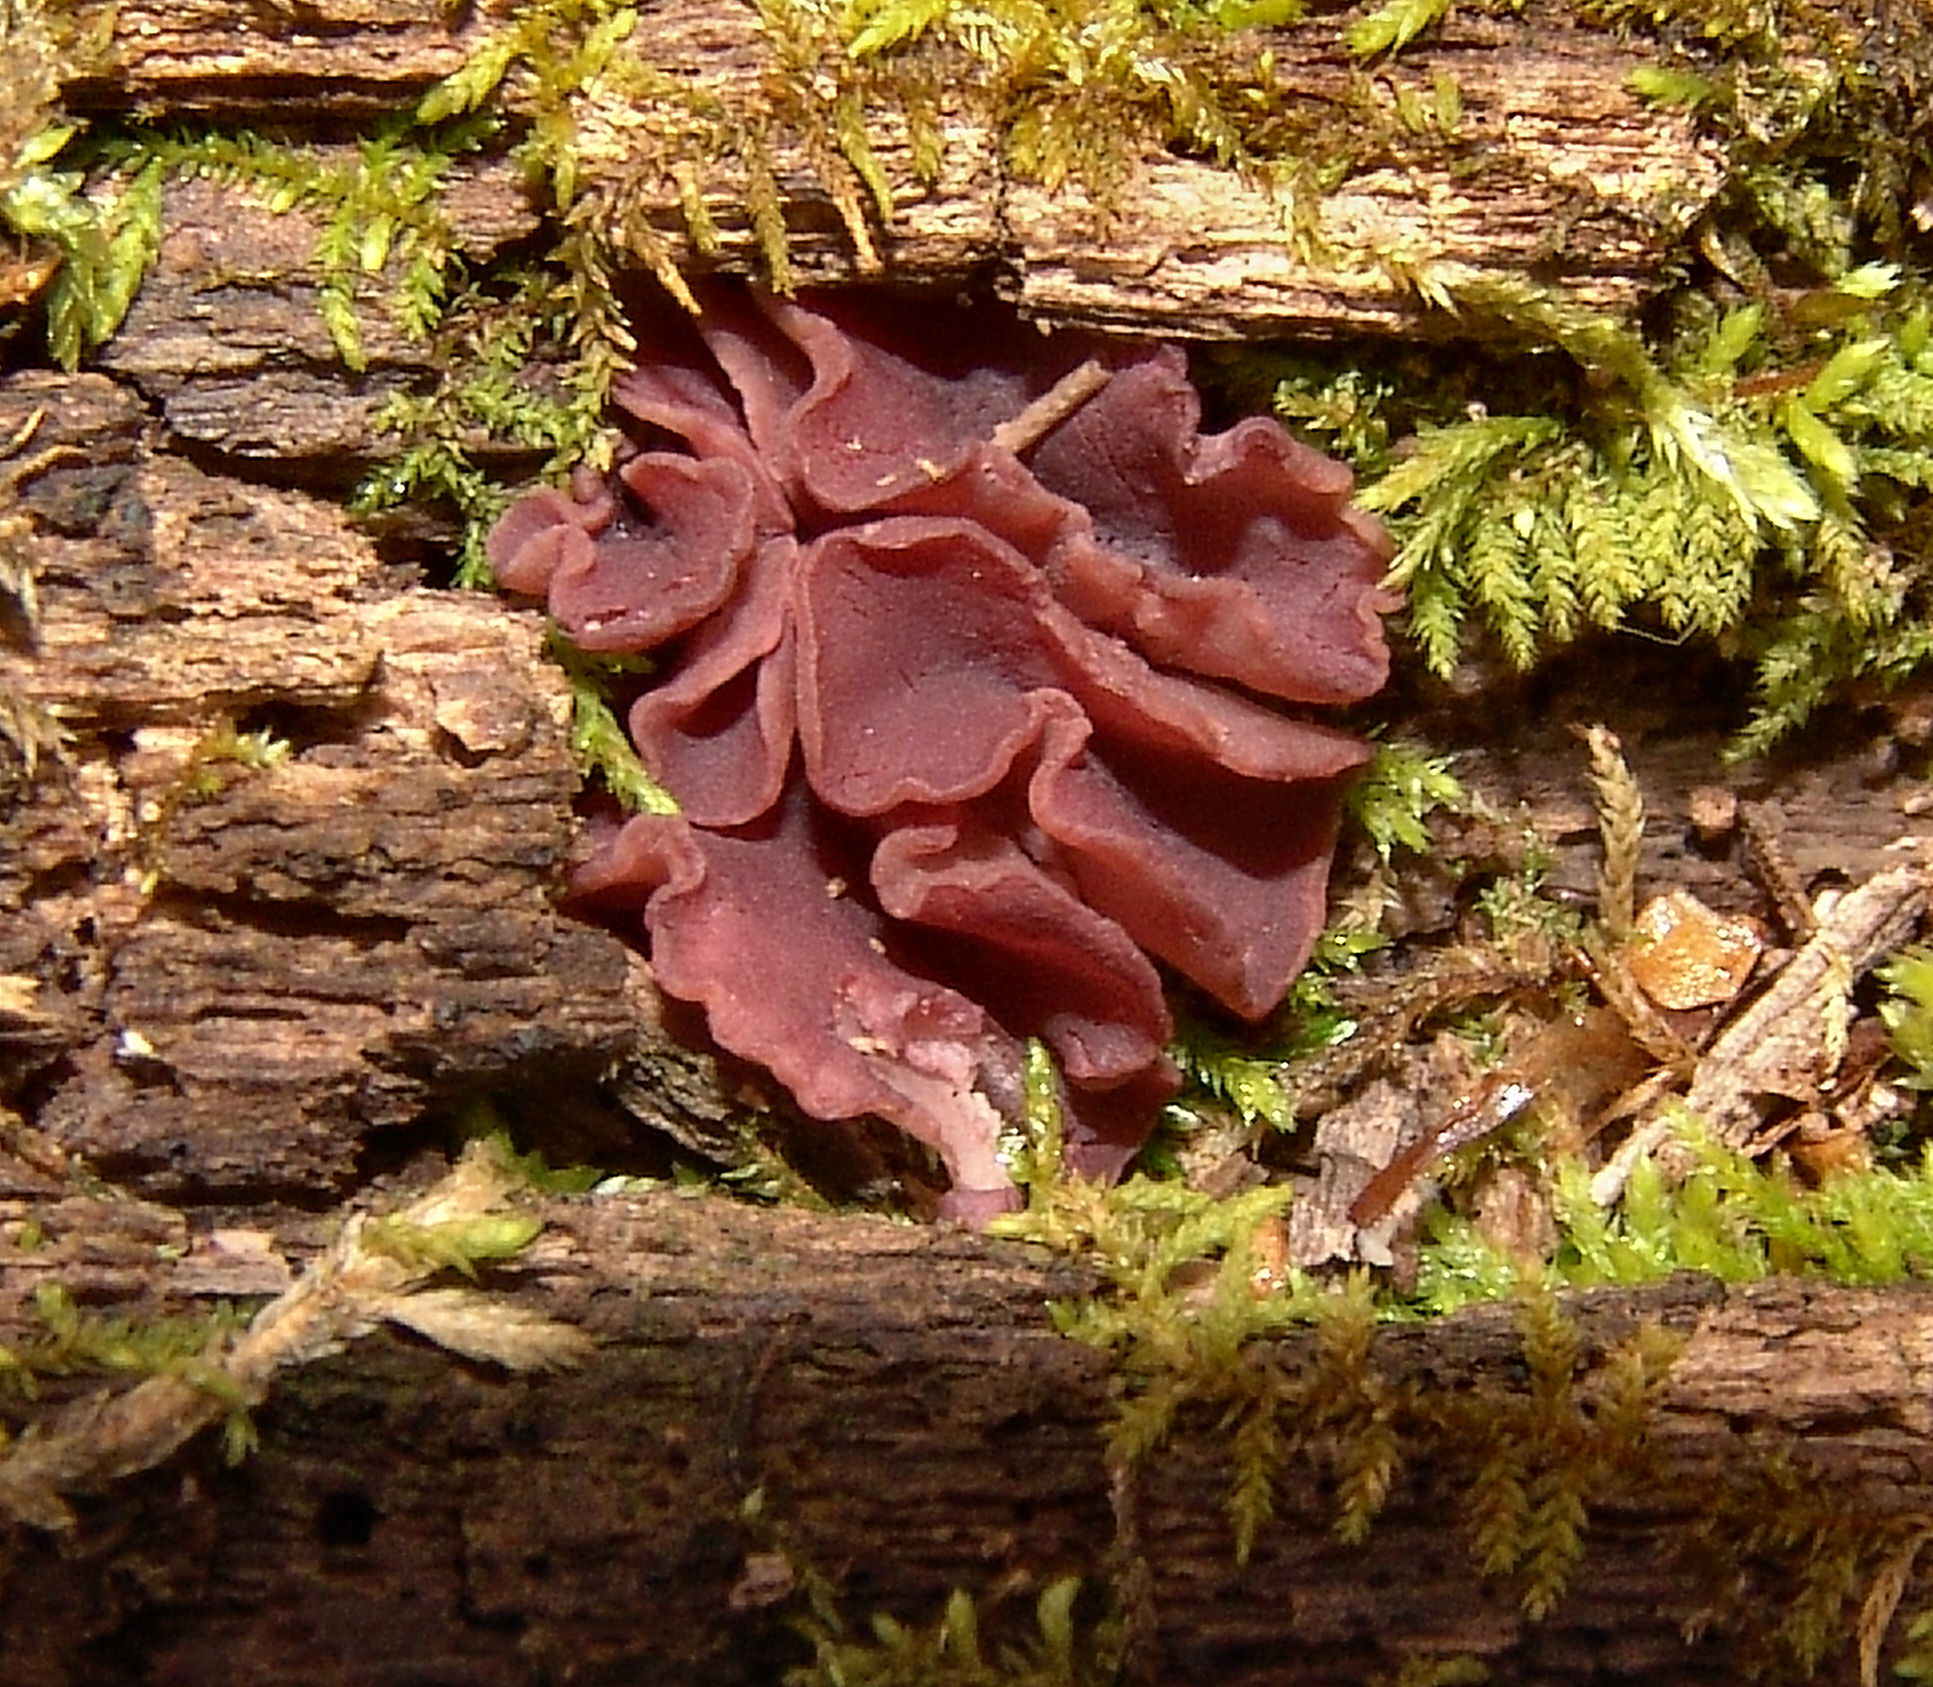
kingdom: Fungi
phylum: Ascomycota
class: Leotiomycetes
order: Helotiales
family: Gelatinodiscaceae
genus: Ascocoryne
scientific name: Ascocoryne sarcoides
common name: Purple jellydisc
